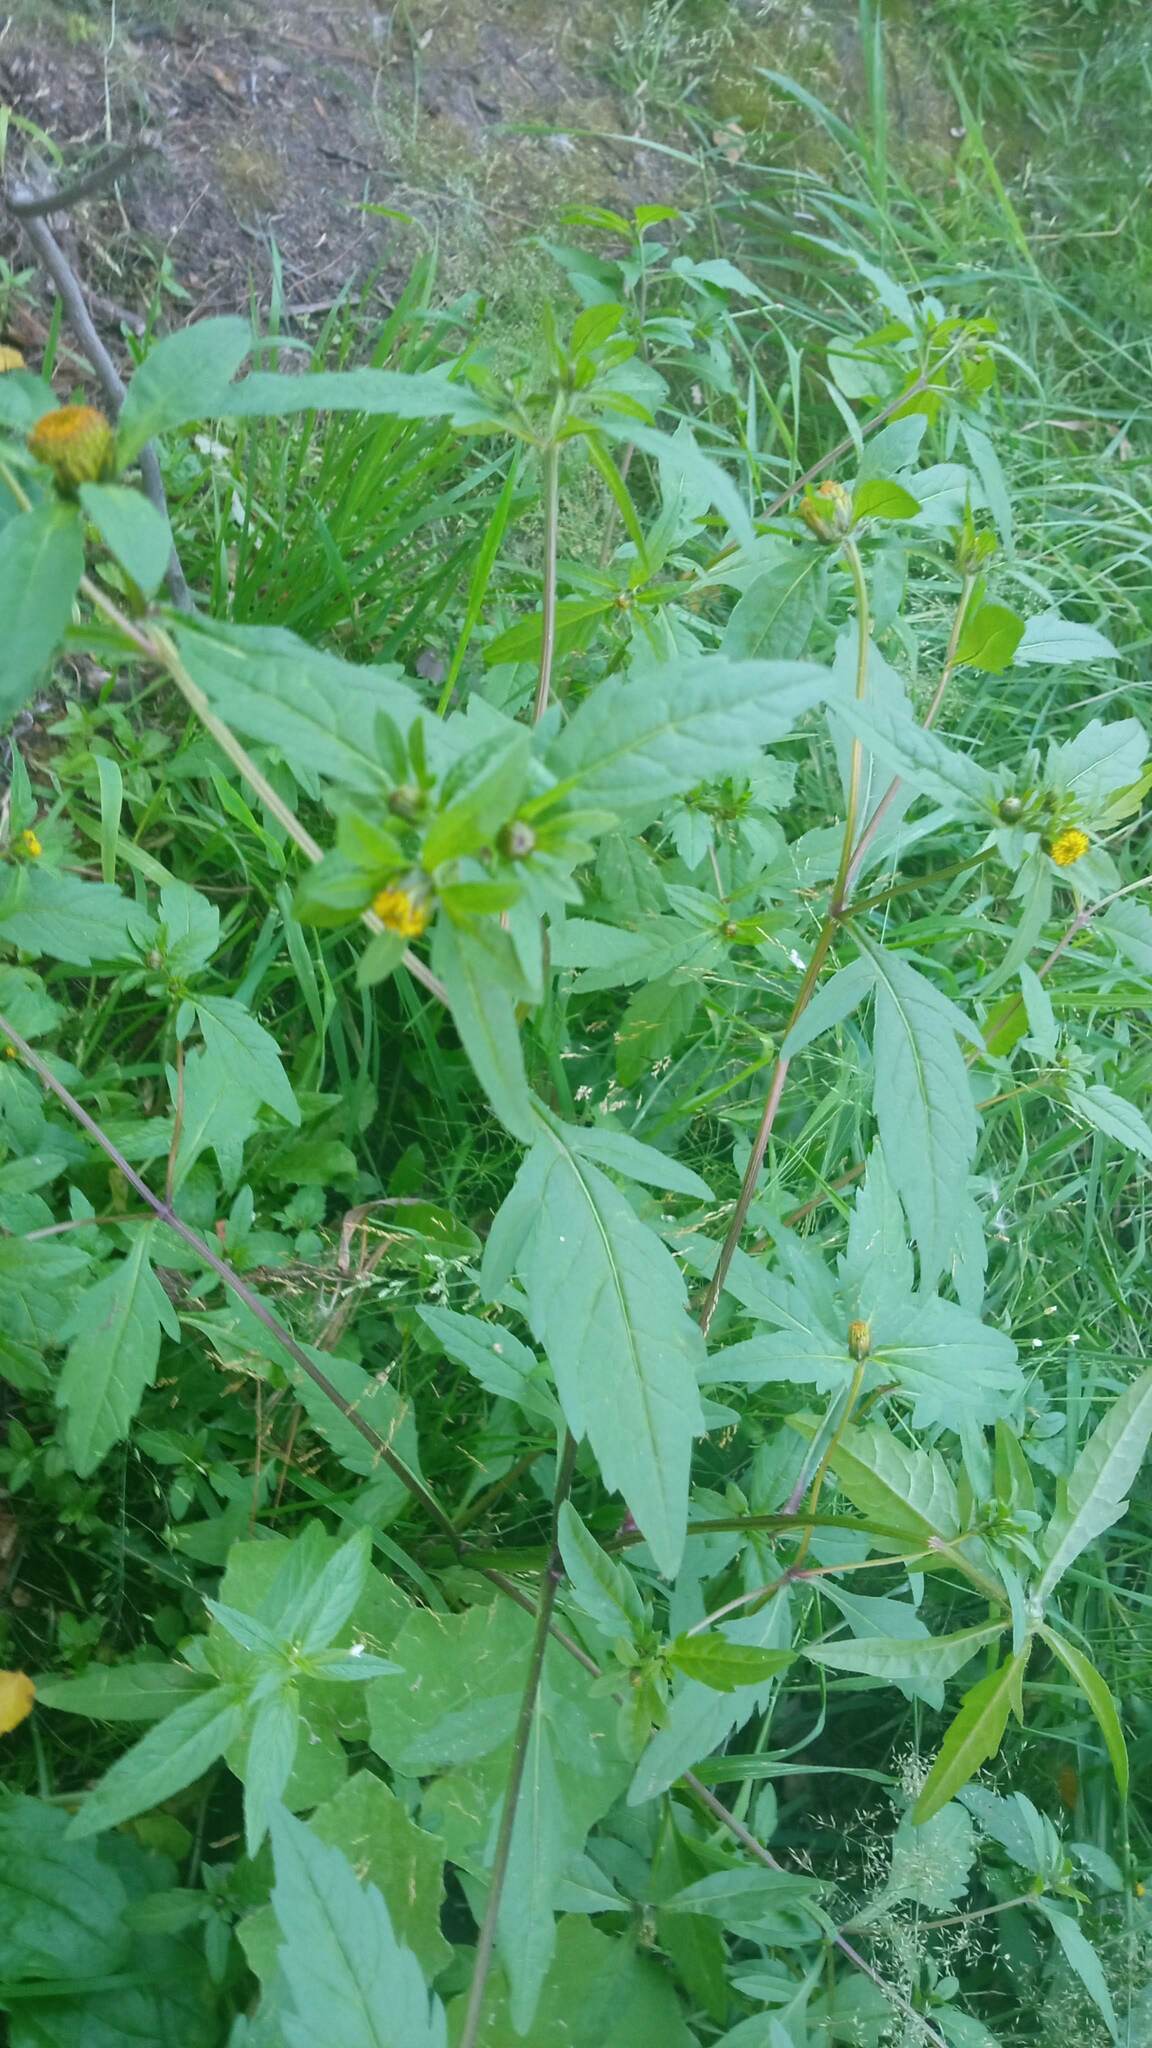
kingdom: Plantae
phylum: Tracheophyta
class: Magnoliopsida
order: Asterales
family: Asteraceae
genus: Bidens
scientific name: Bidens tripartita
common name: Trifid bur-marigold
